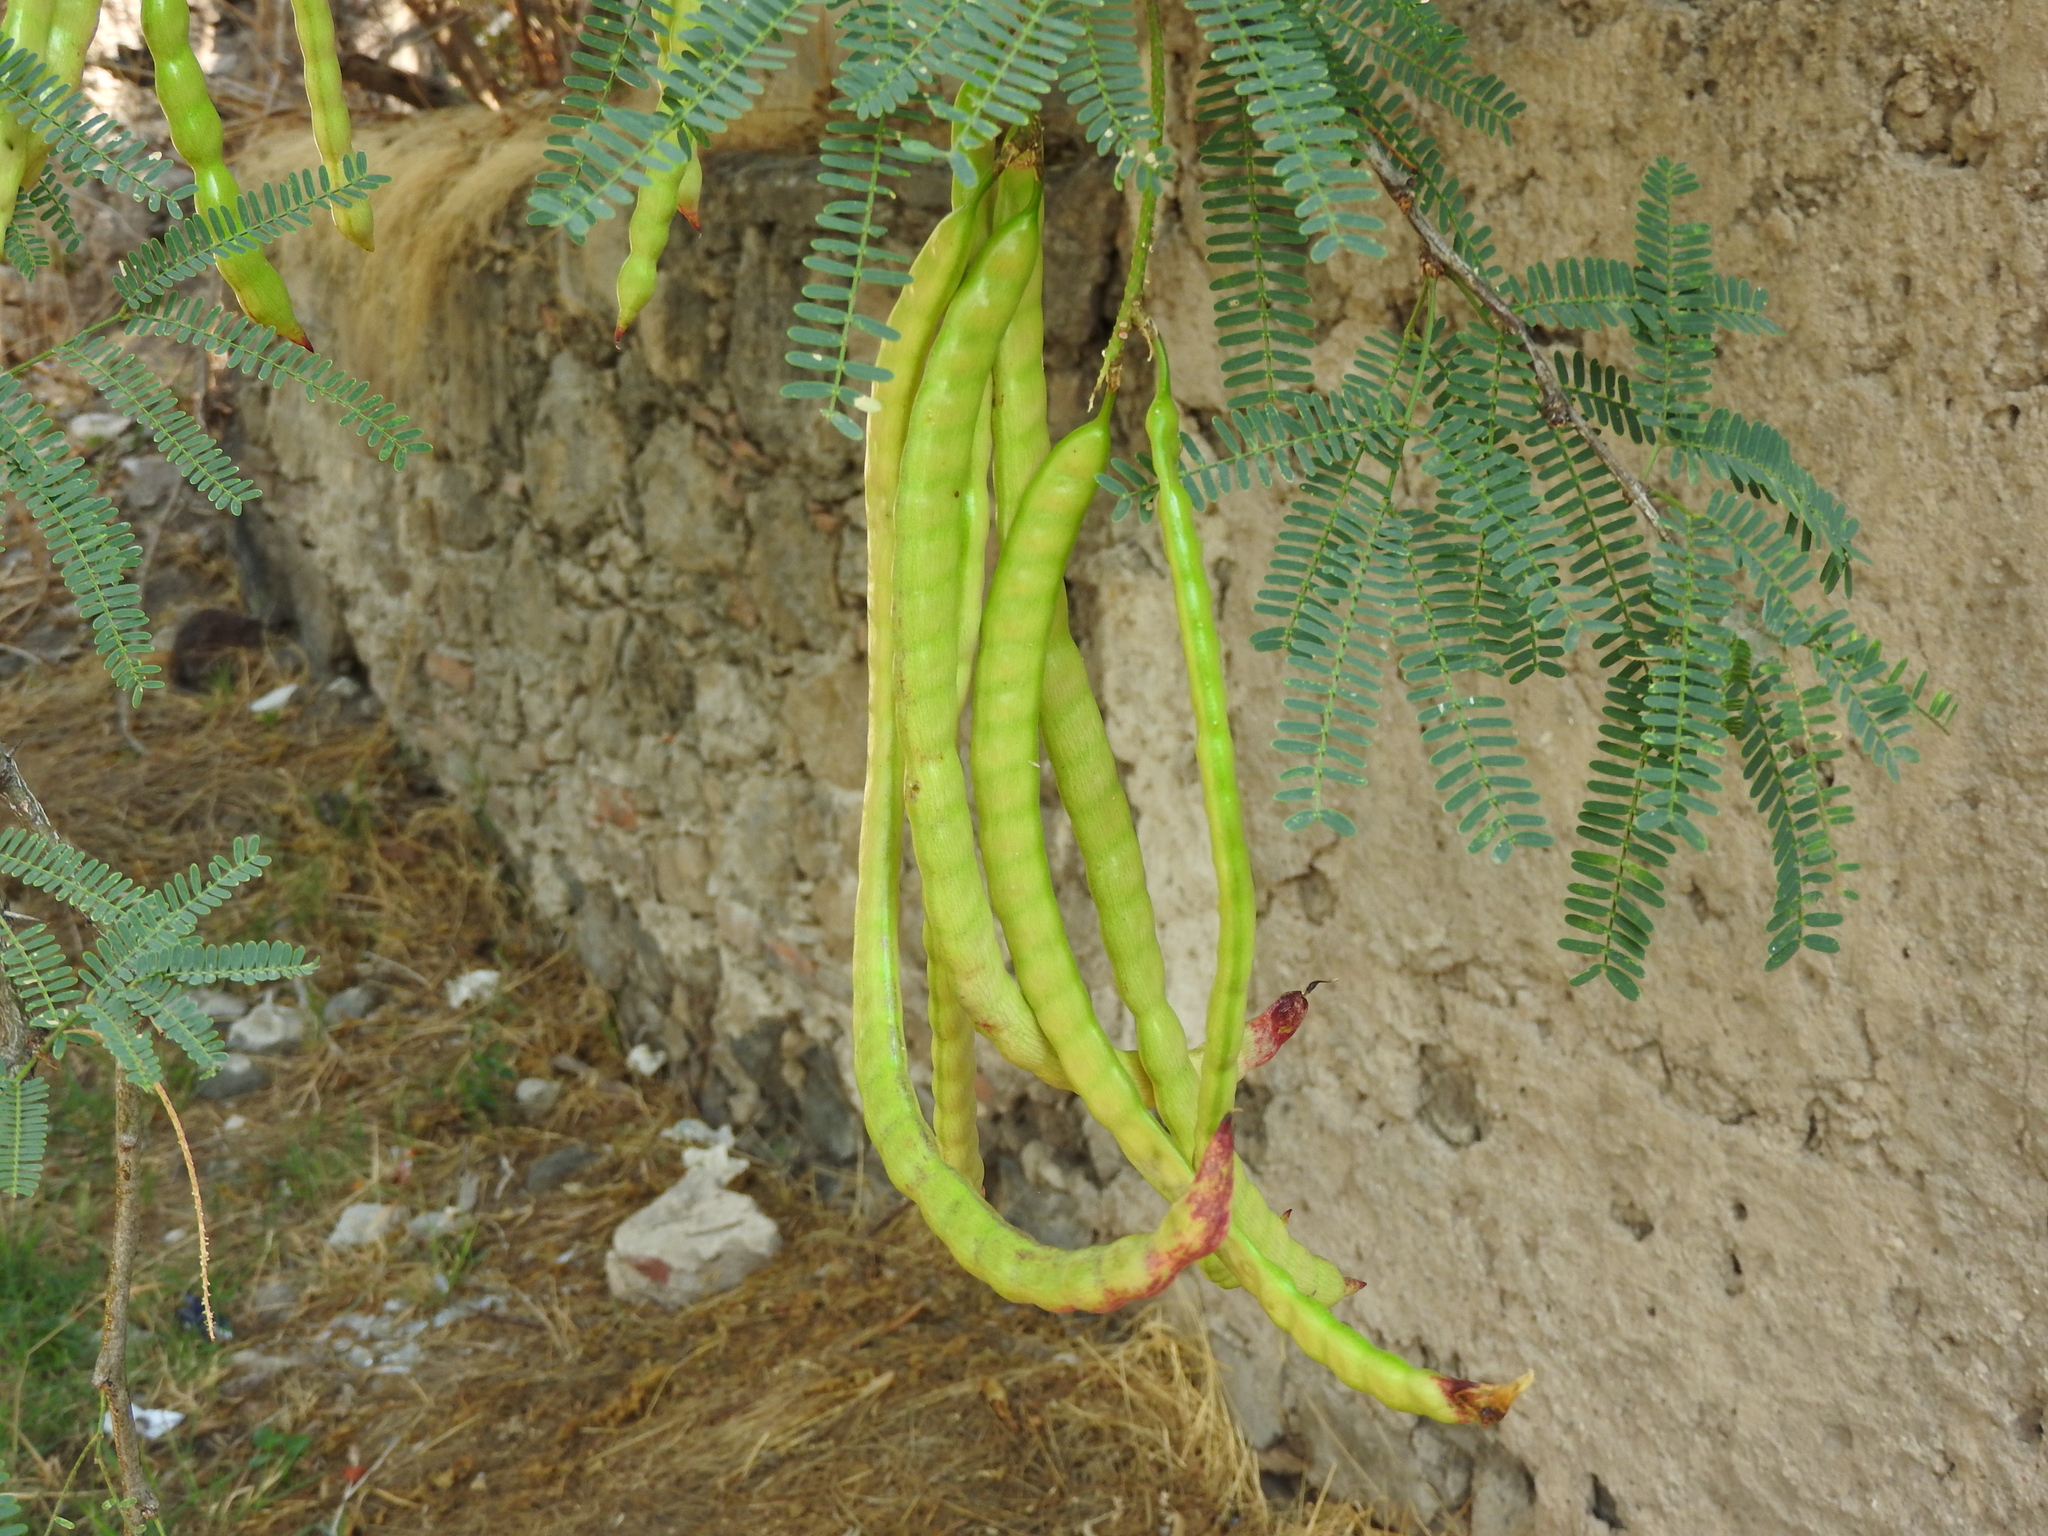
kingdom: Plantae
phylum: Tracheophyta
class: Magnoliopsida
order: Fabales
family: Fabaceae
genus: Prosopis
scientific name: Prosopis laevigata
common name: Smooth mesquite
